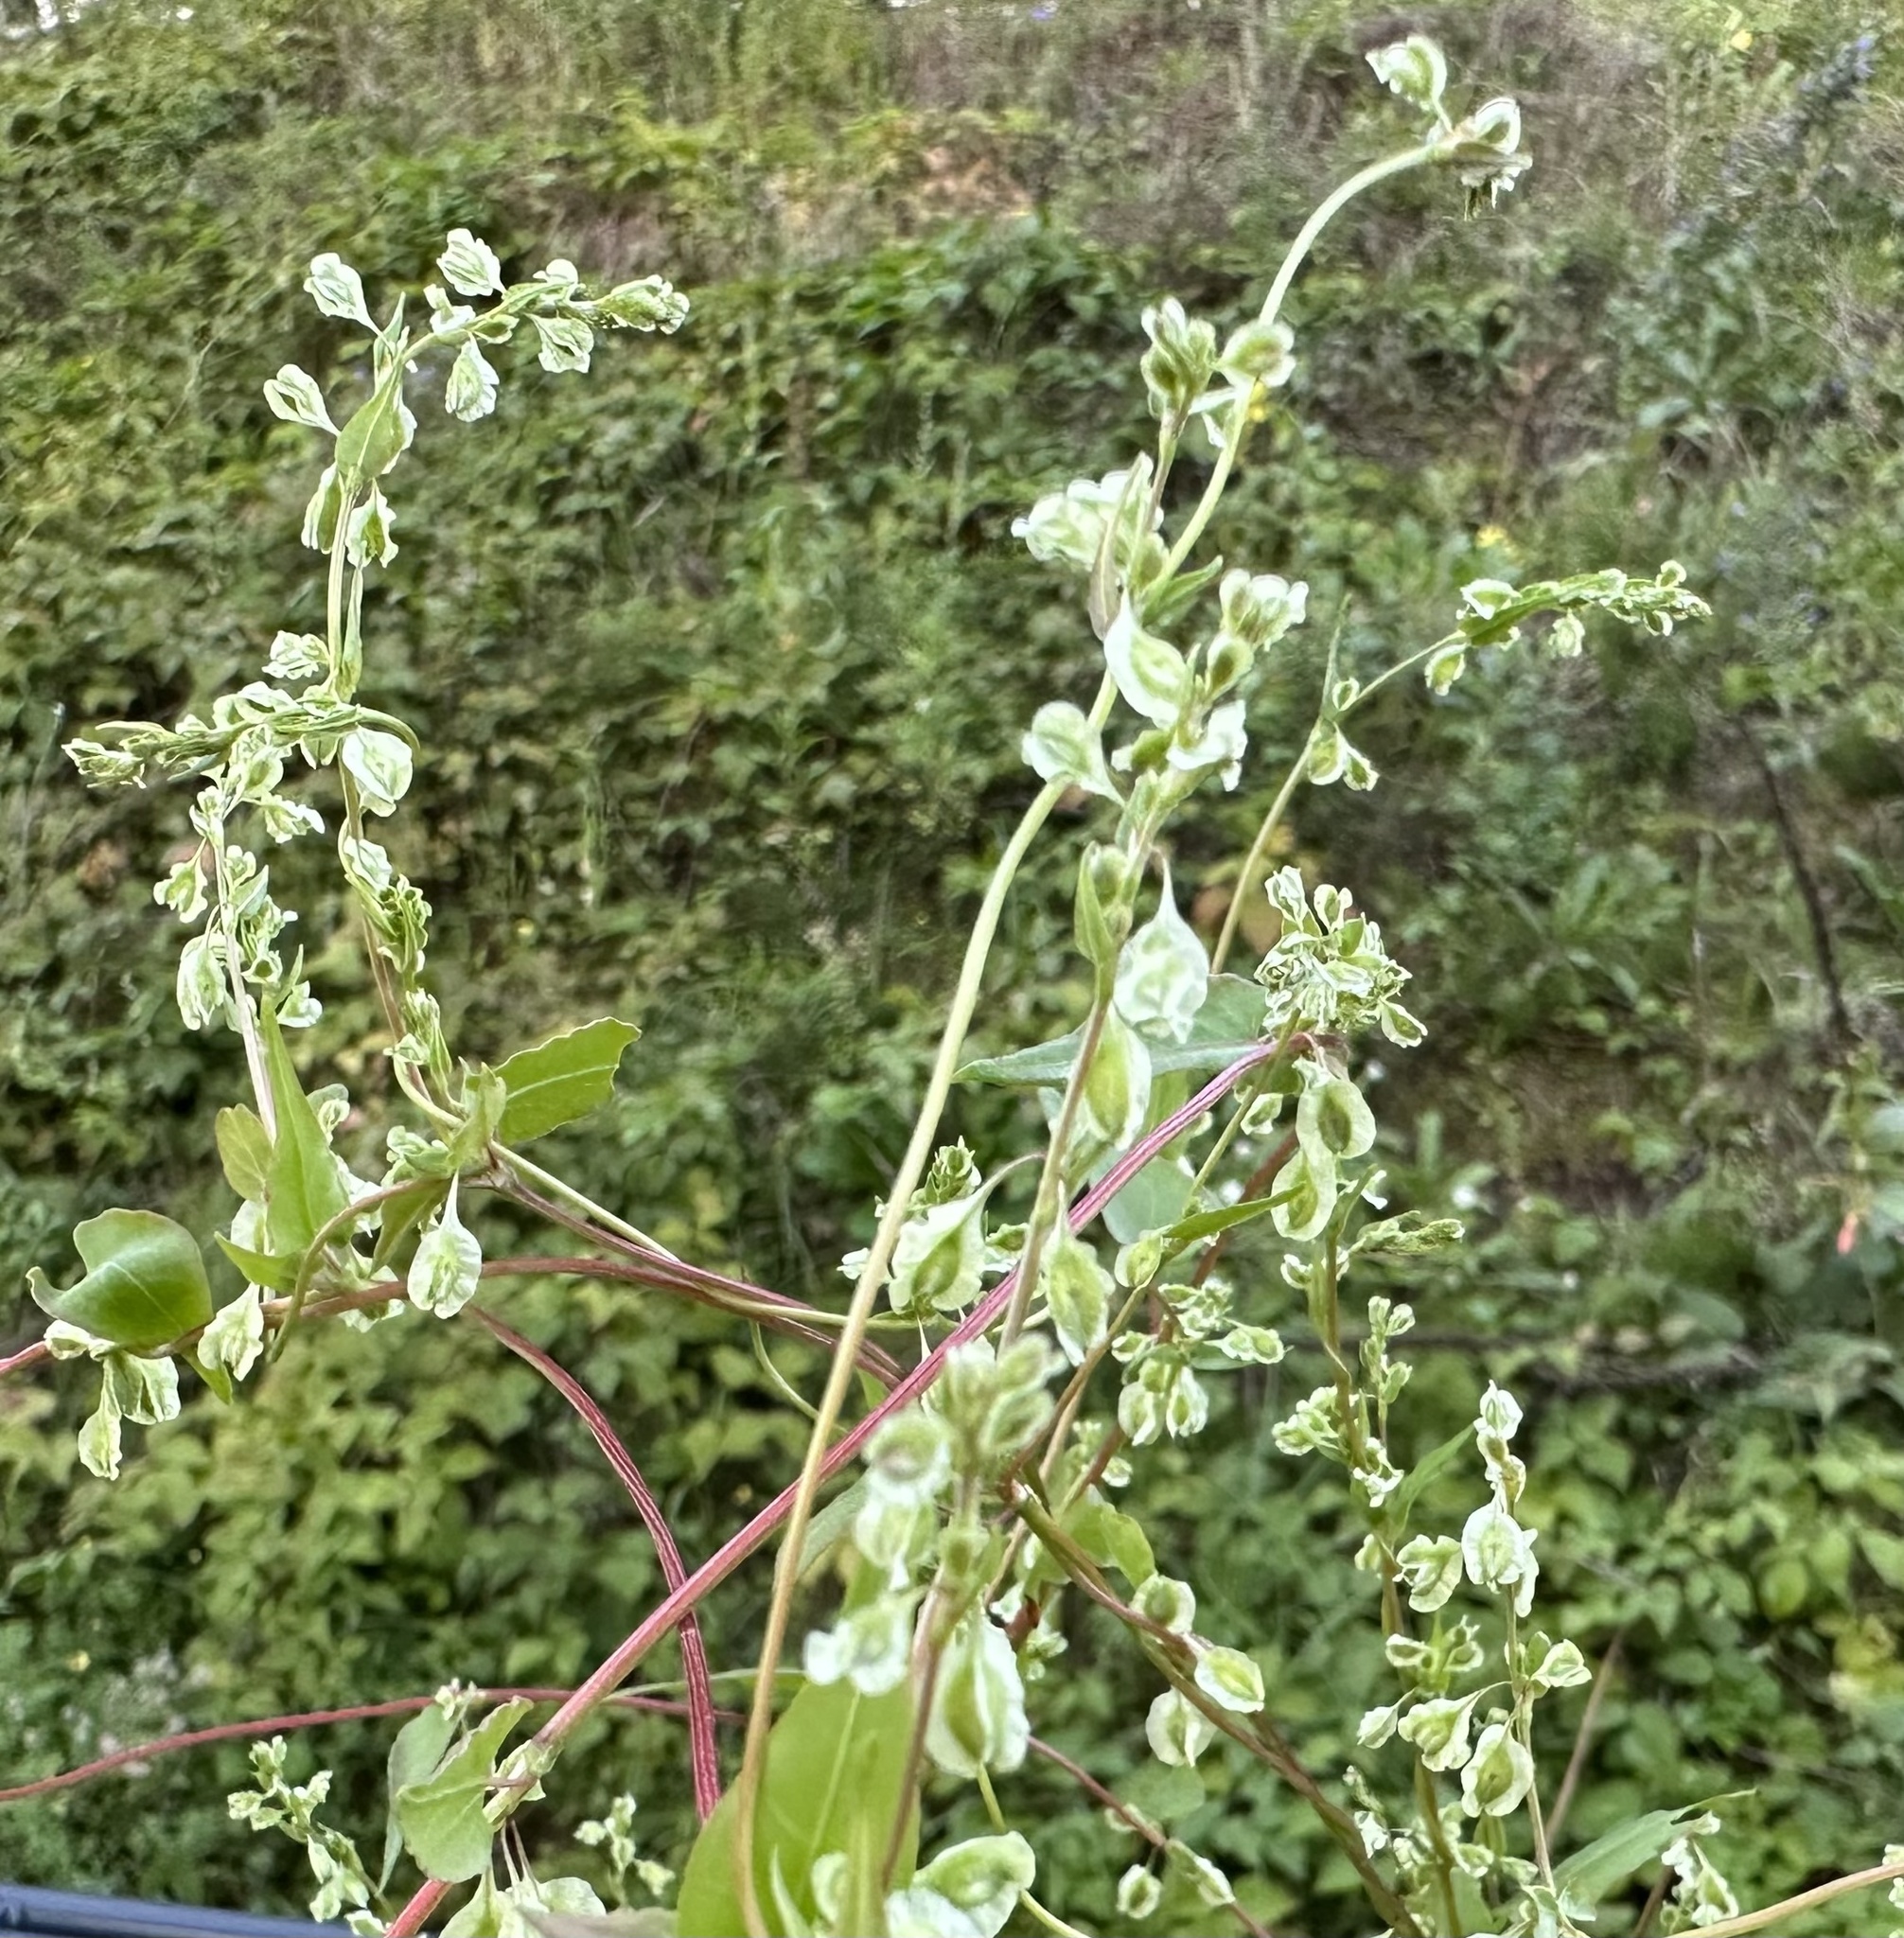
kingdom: Plantae
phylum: Tracheophyta
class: Magnoliopsida
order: Caryophyllales
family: Polygonaceae
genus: Fallopia
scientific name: Fallopia dumetorum
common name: Copse-bindweed
